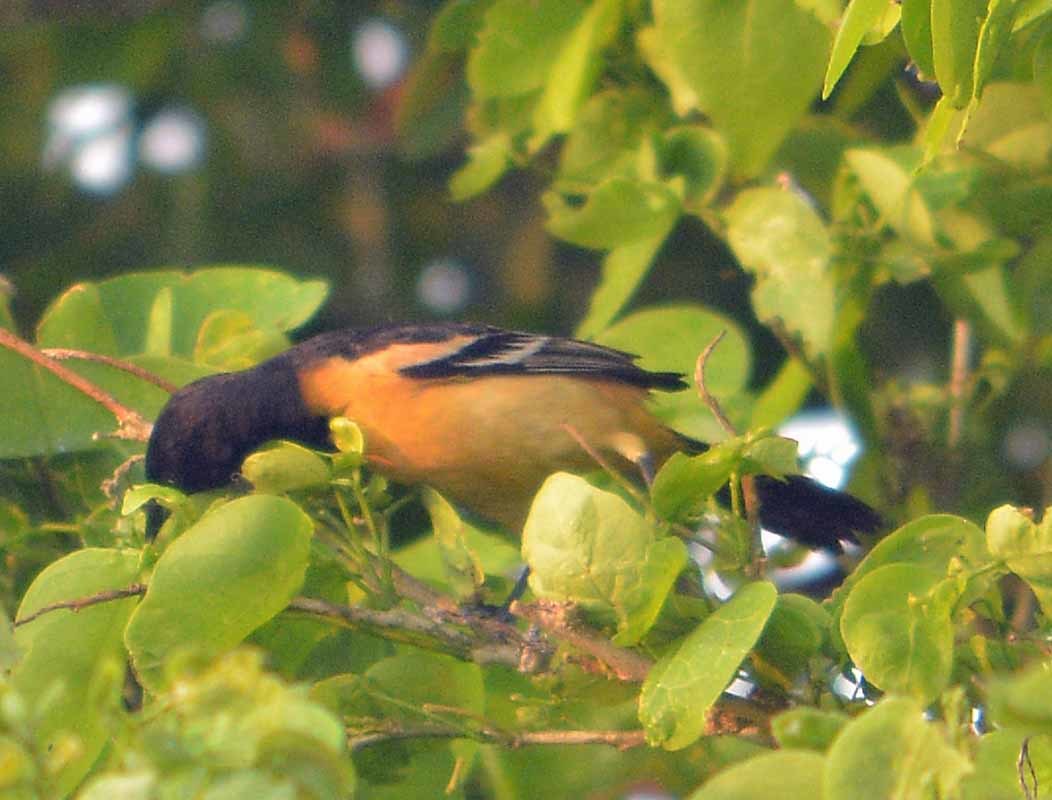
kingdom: Animalia
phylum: Chordata
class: Aves
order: Passeriformes
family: Icteridae
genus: Icterus
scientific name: Icterus galbula
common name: Baltimore oriole
